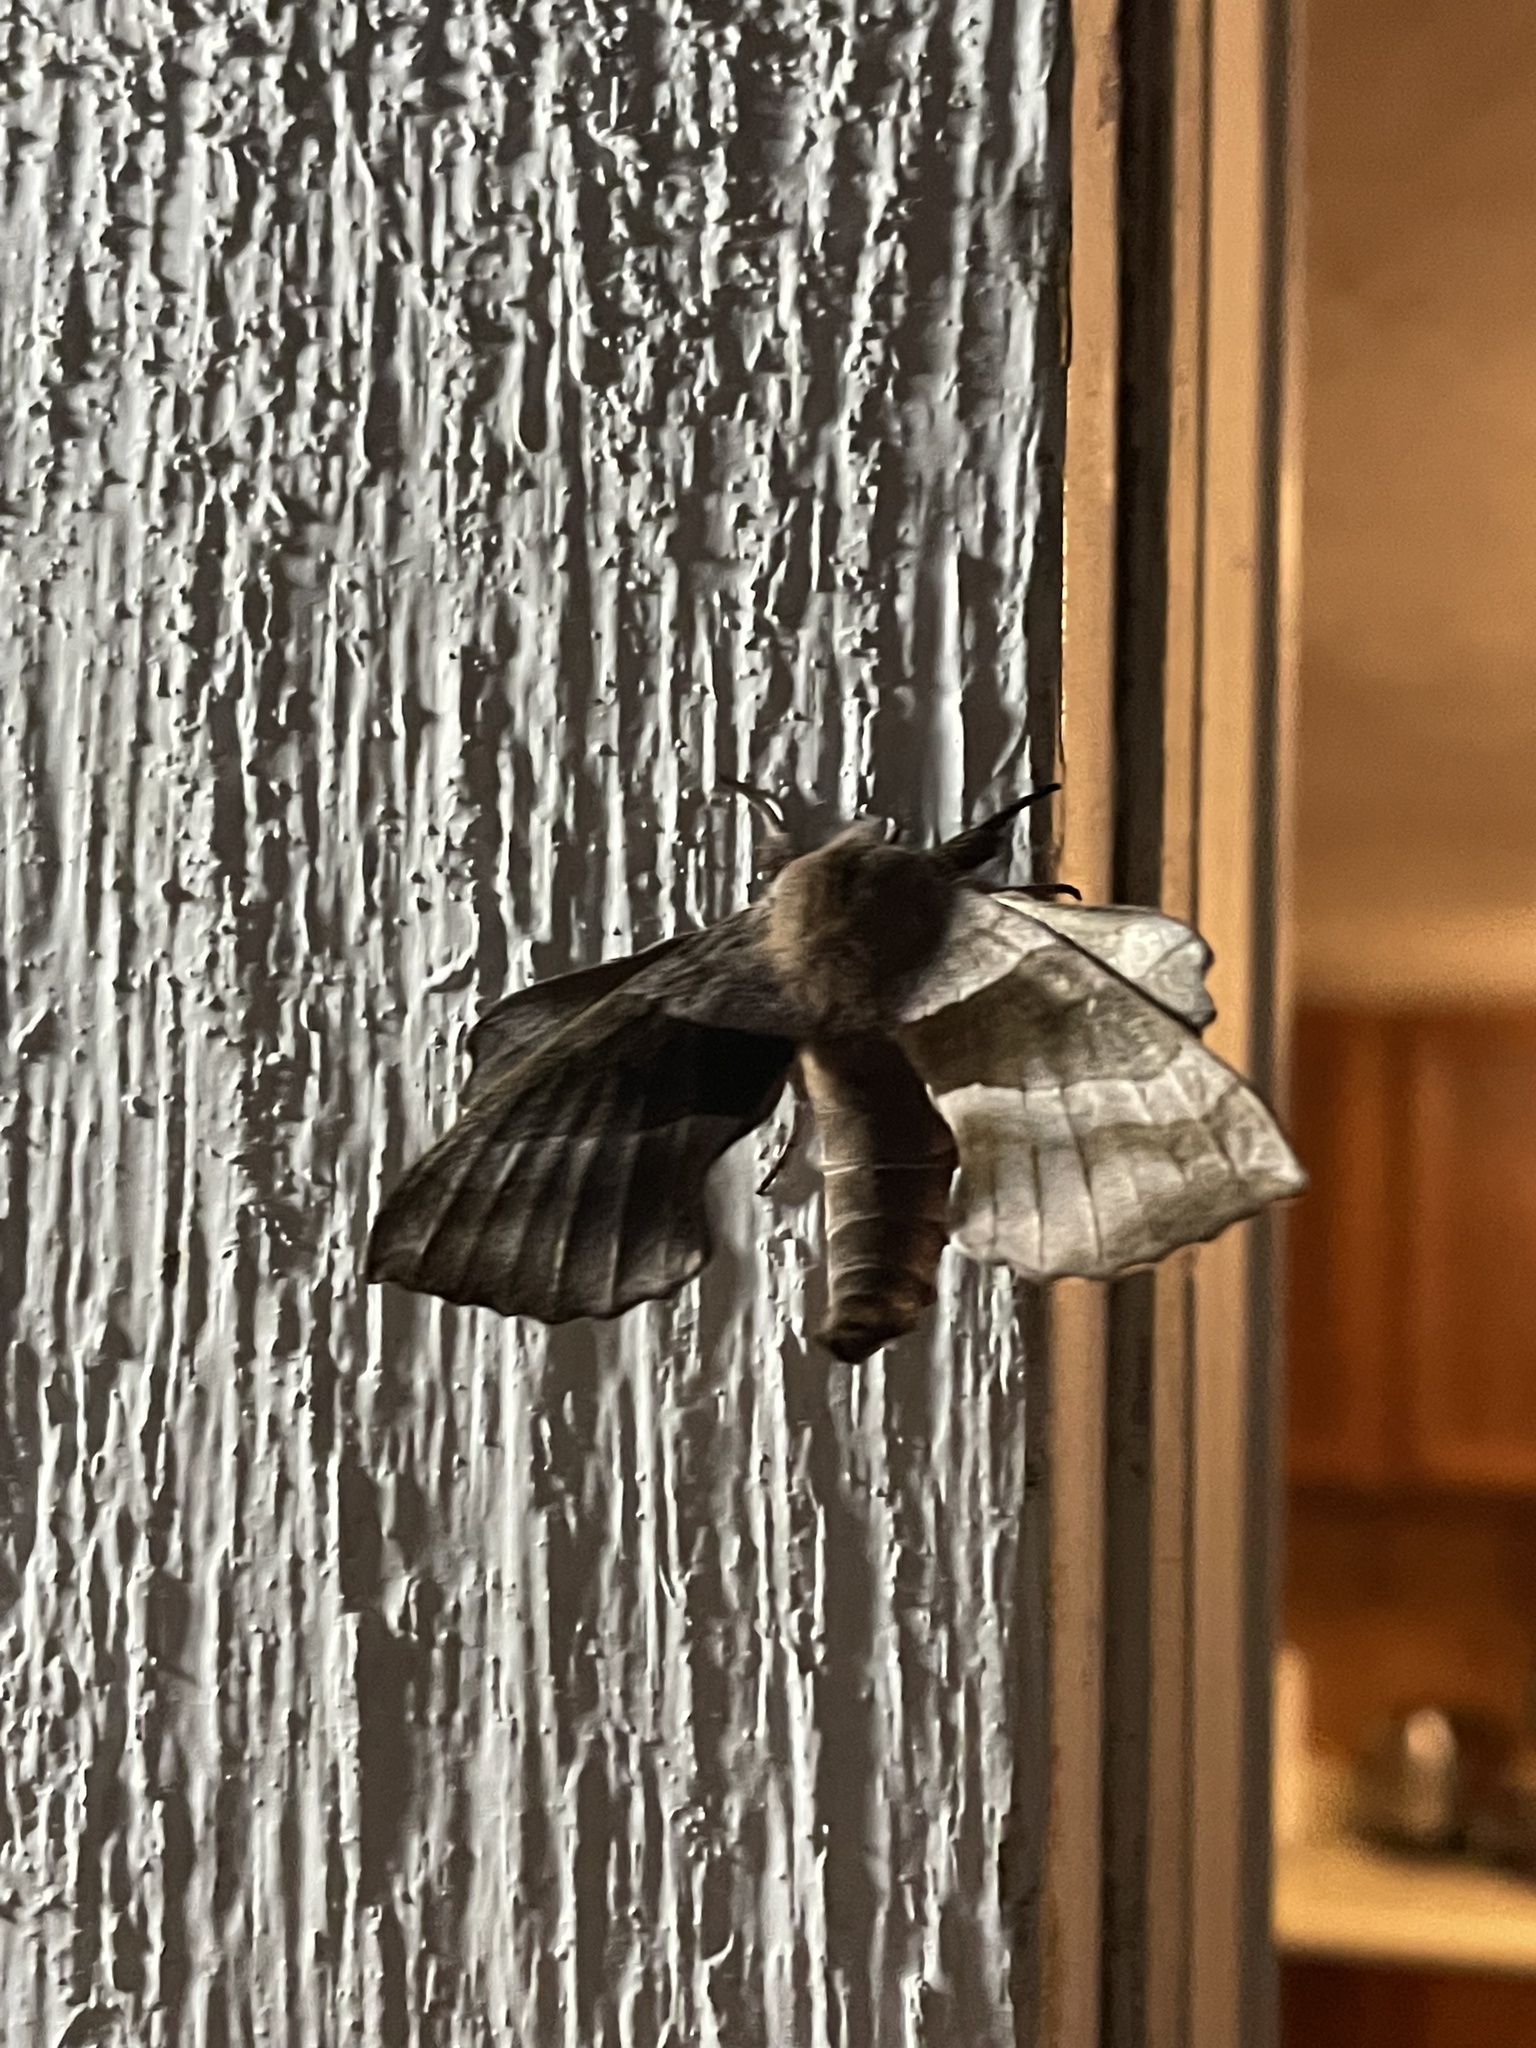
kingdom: Animalia
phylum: Arthropoda
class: Insecta
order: Lepidoptera
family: Sphingidae
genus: Amorpha
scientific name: Amorpha juglandis
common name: Walnut sphinx
